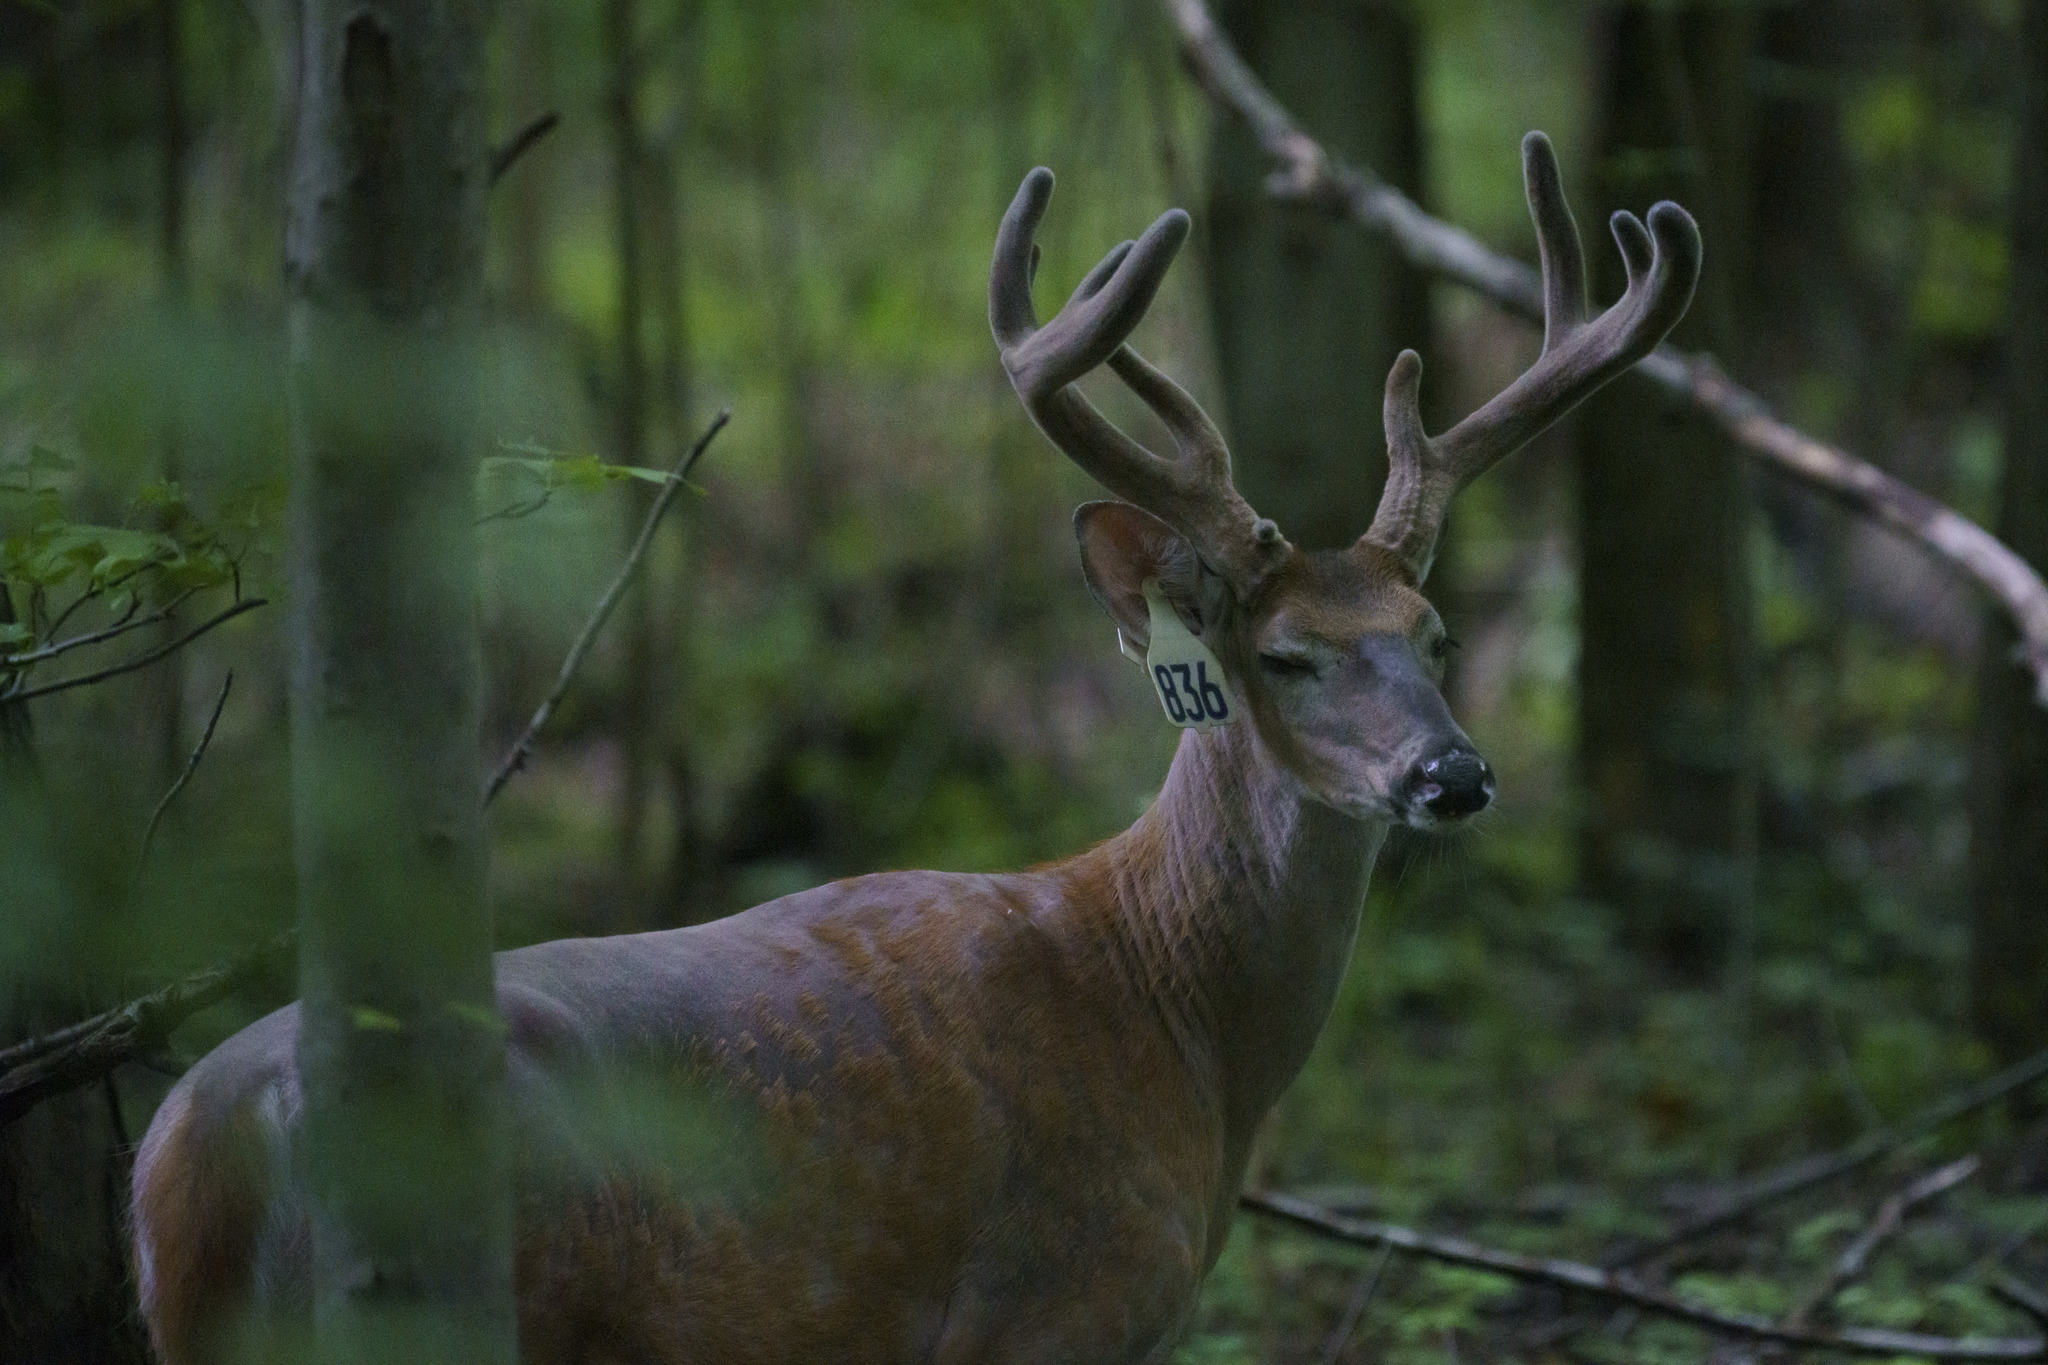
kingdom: Animalia
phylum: Chordata
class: Mammalia
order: Artiodactyla
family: Cervidae
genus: Odocoileus
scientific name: Odocoileus virginianus
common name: White-tailed deer
